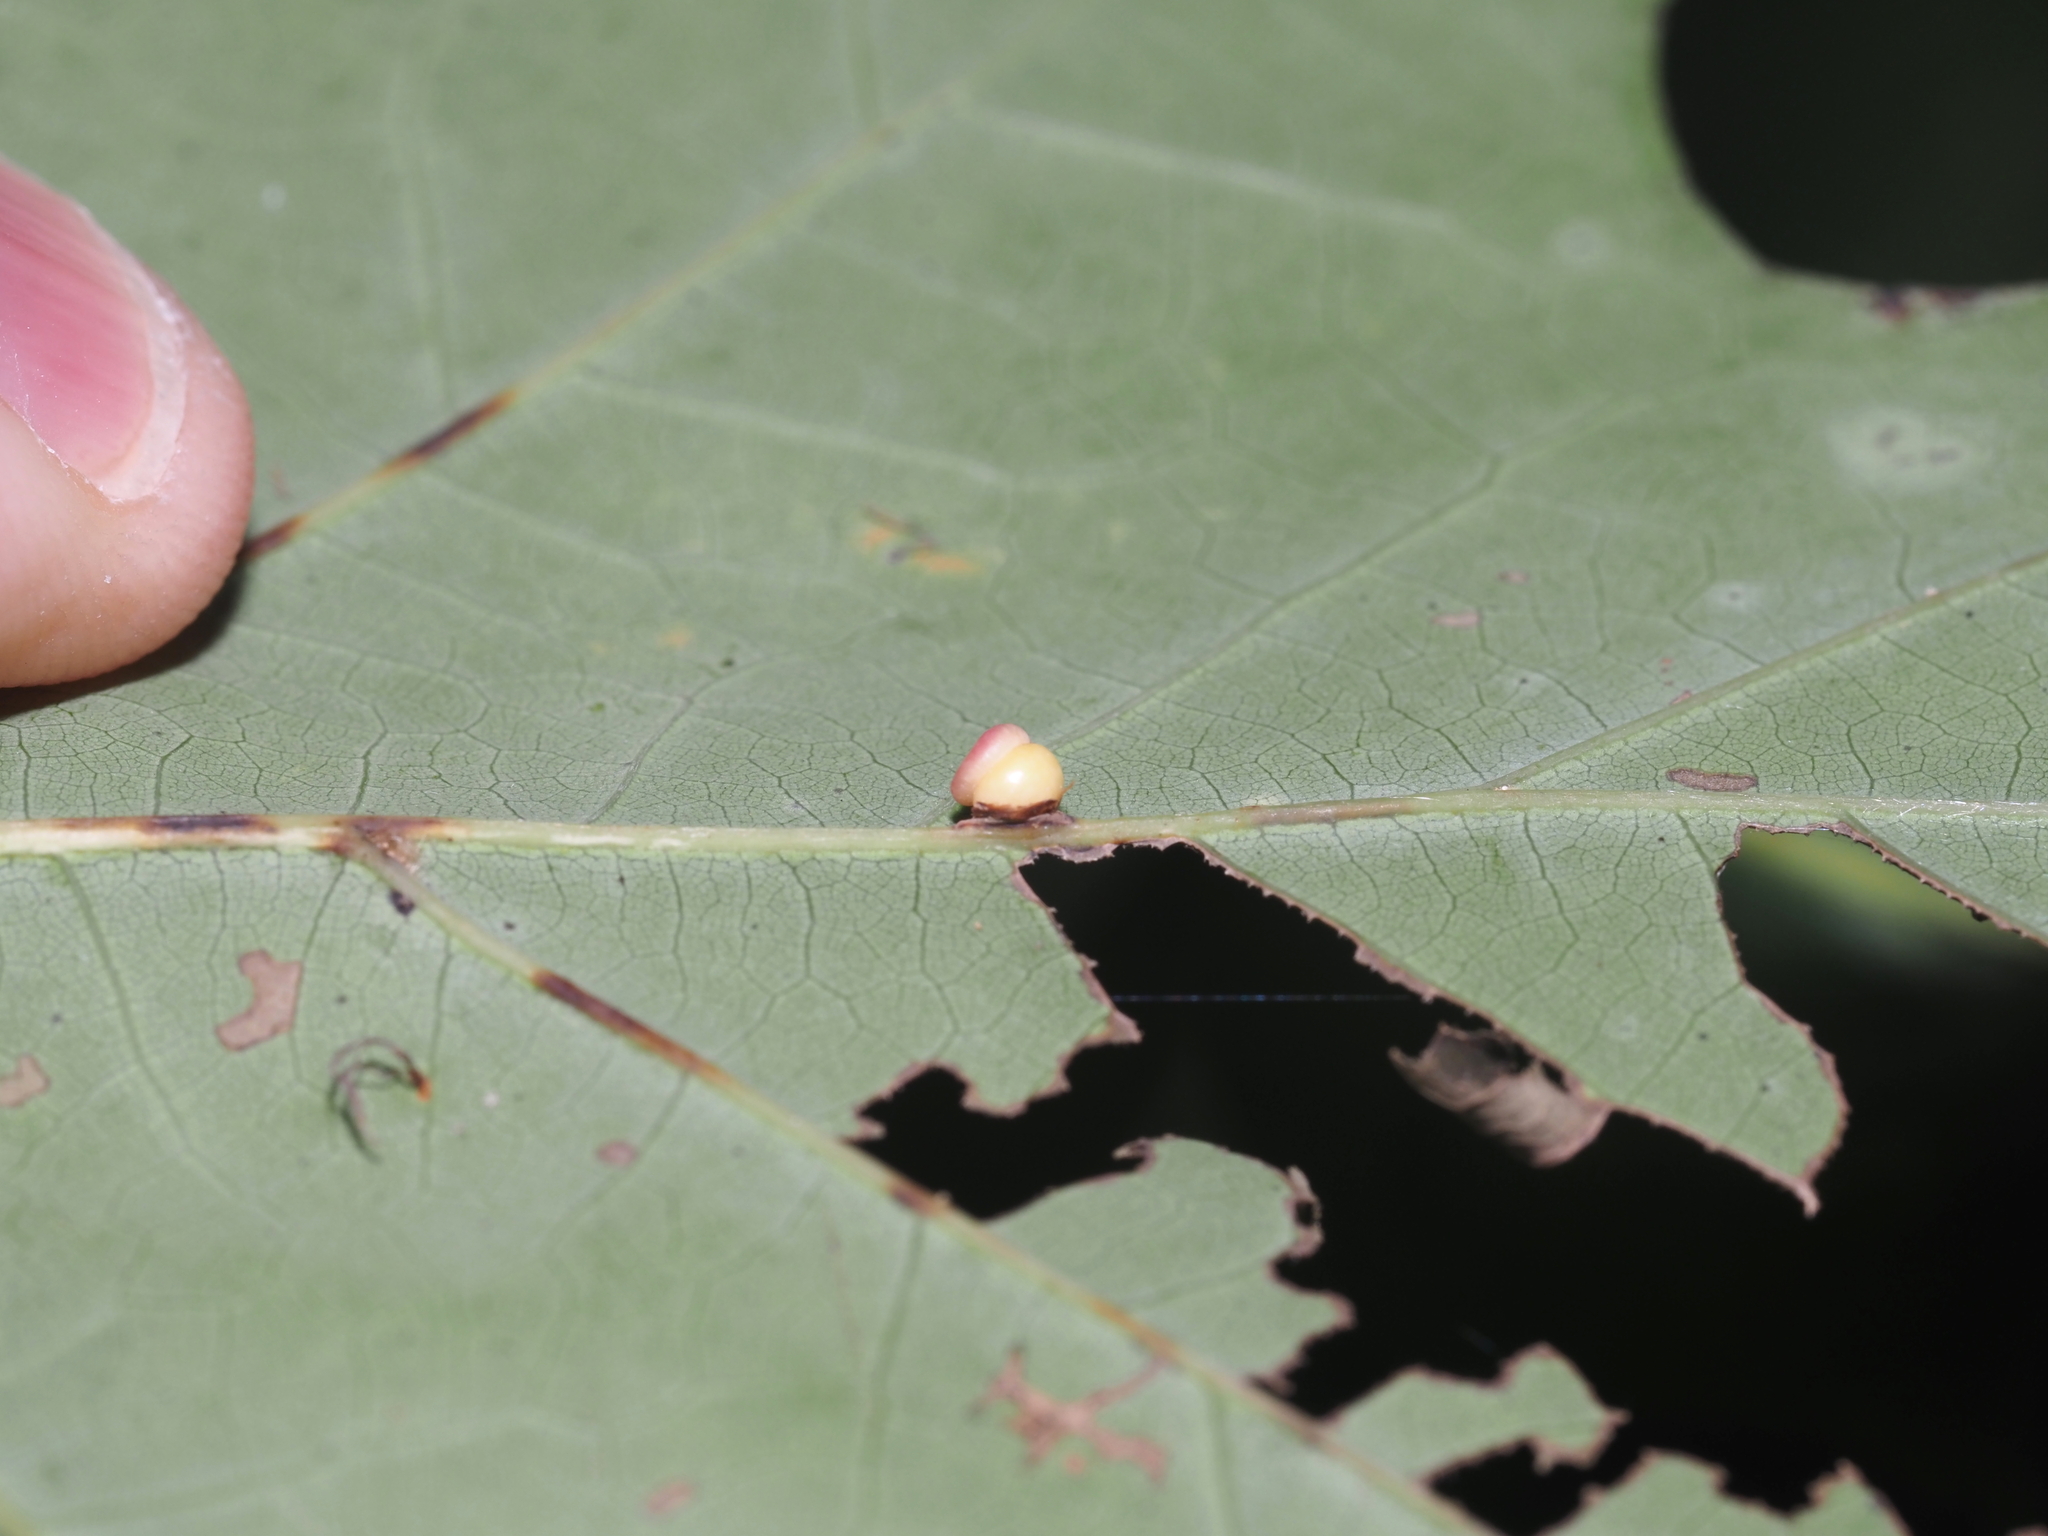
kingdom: Animalia
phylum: Arthropoda
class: Insecta
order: Hymenoptera
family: Cynipidae
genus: Kokkocynips
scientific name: Kokkocynips rileyi
